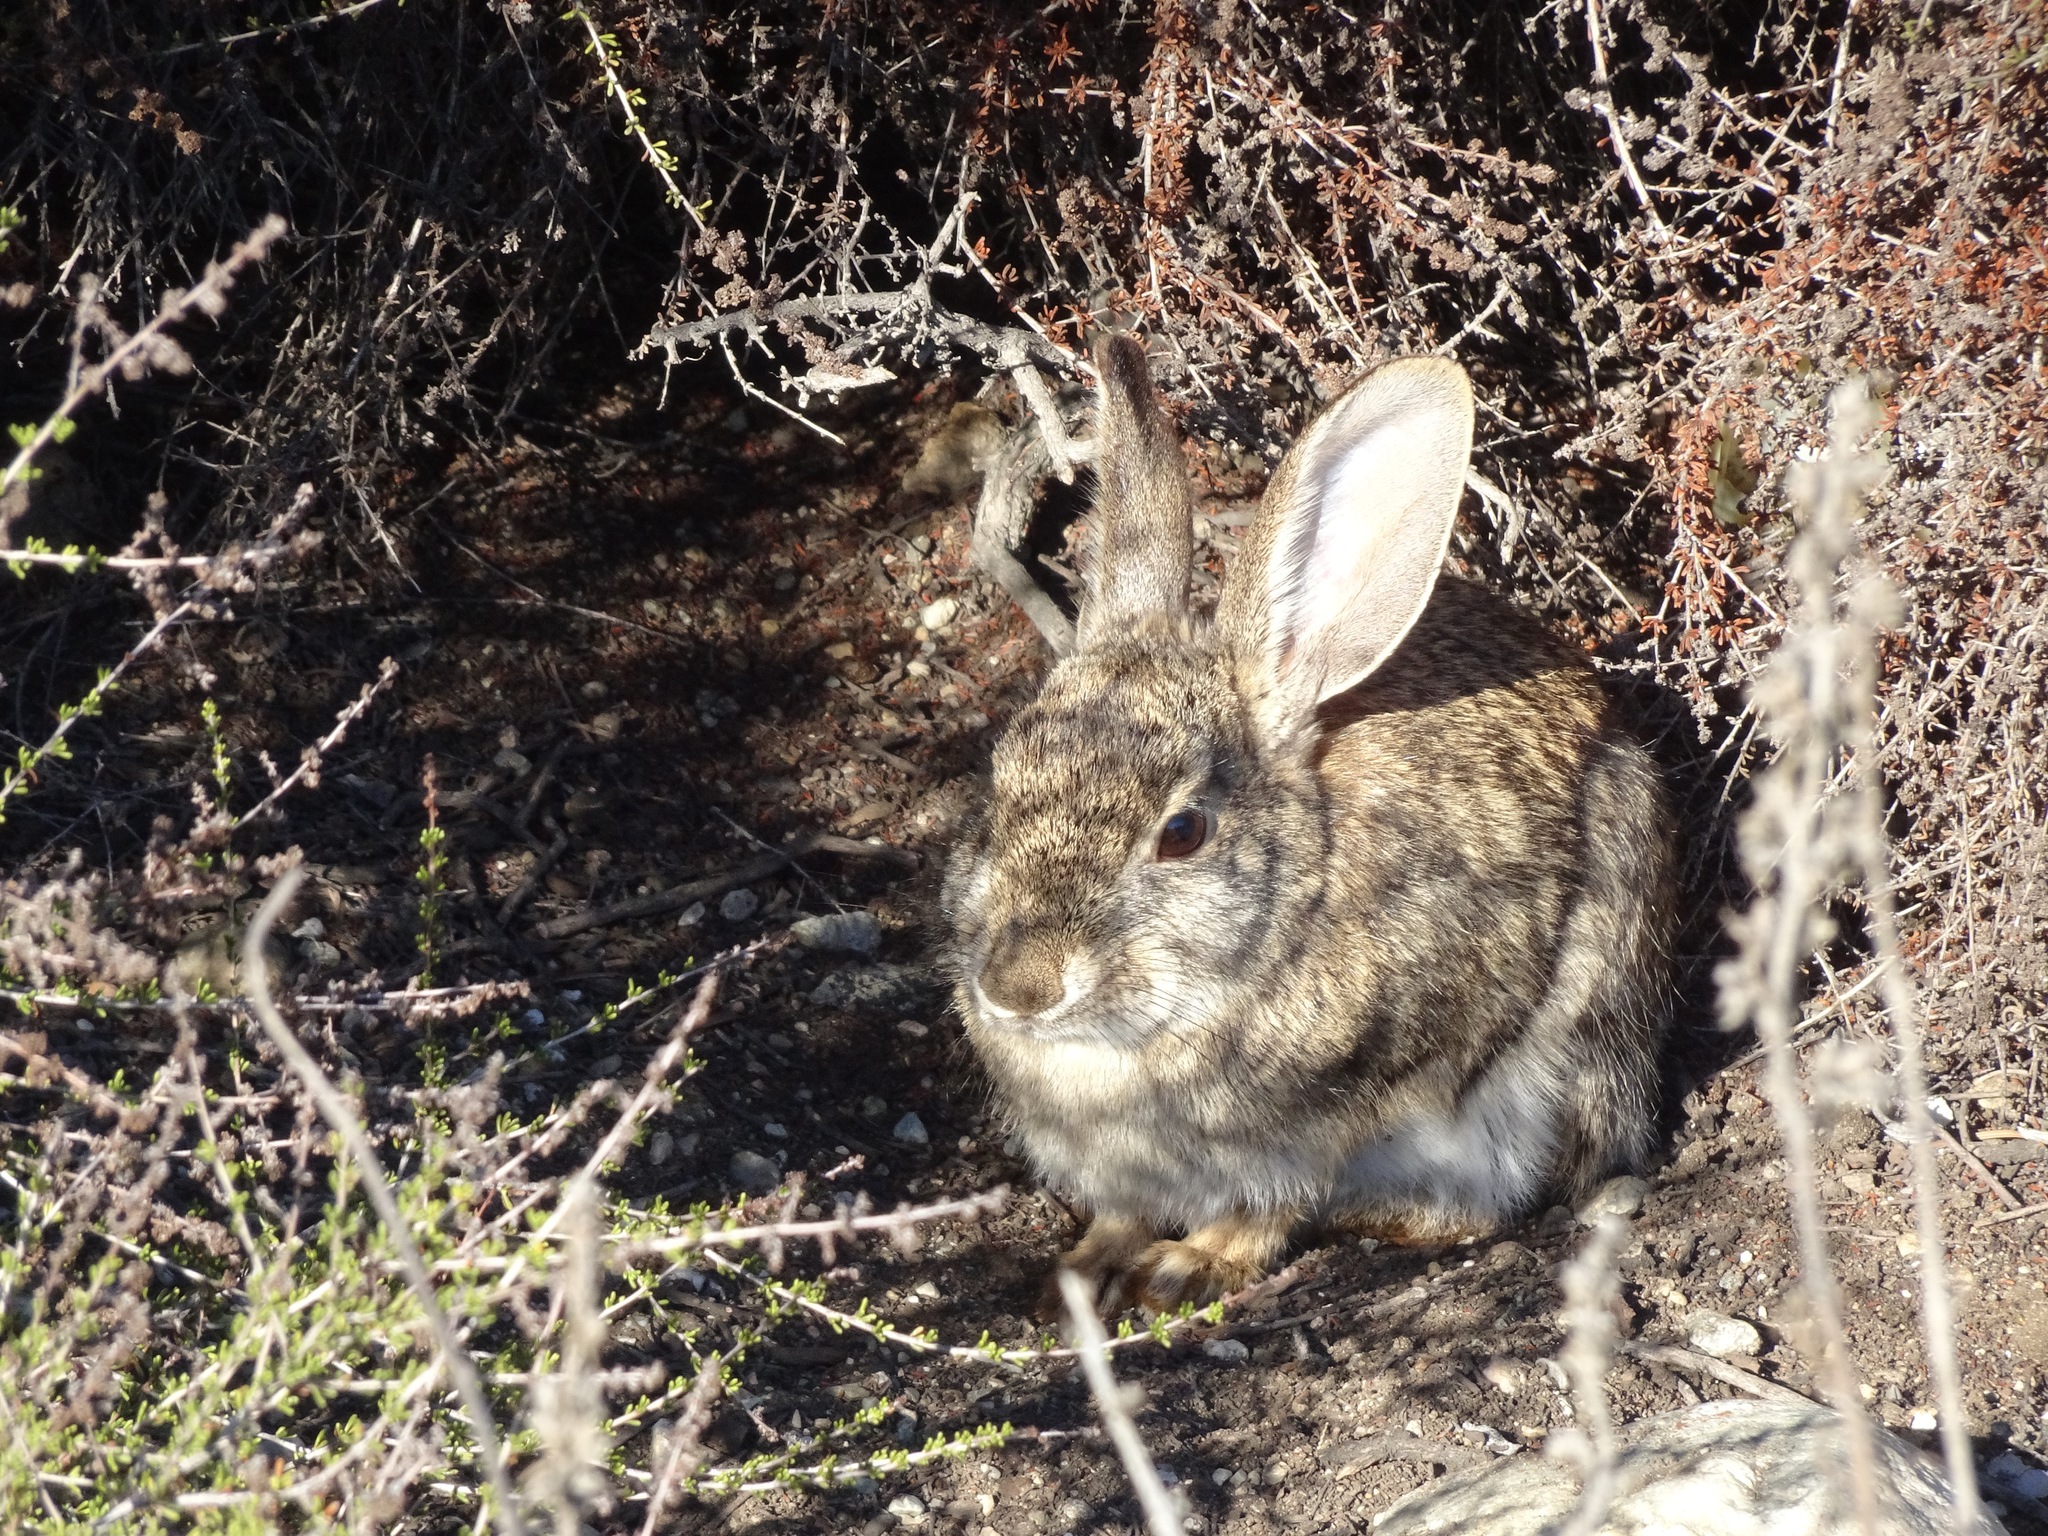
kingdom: Animalia
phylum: Chordata
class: Mammalia
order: Lagomorpha
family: Leporidae
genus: Sylvilagus
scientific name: Sylvilagus audubonii
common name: Desert cottontail
